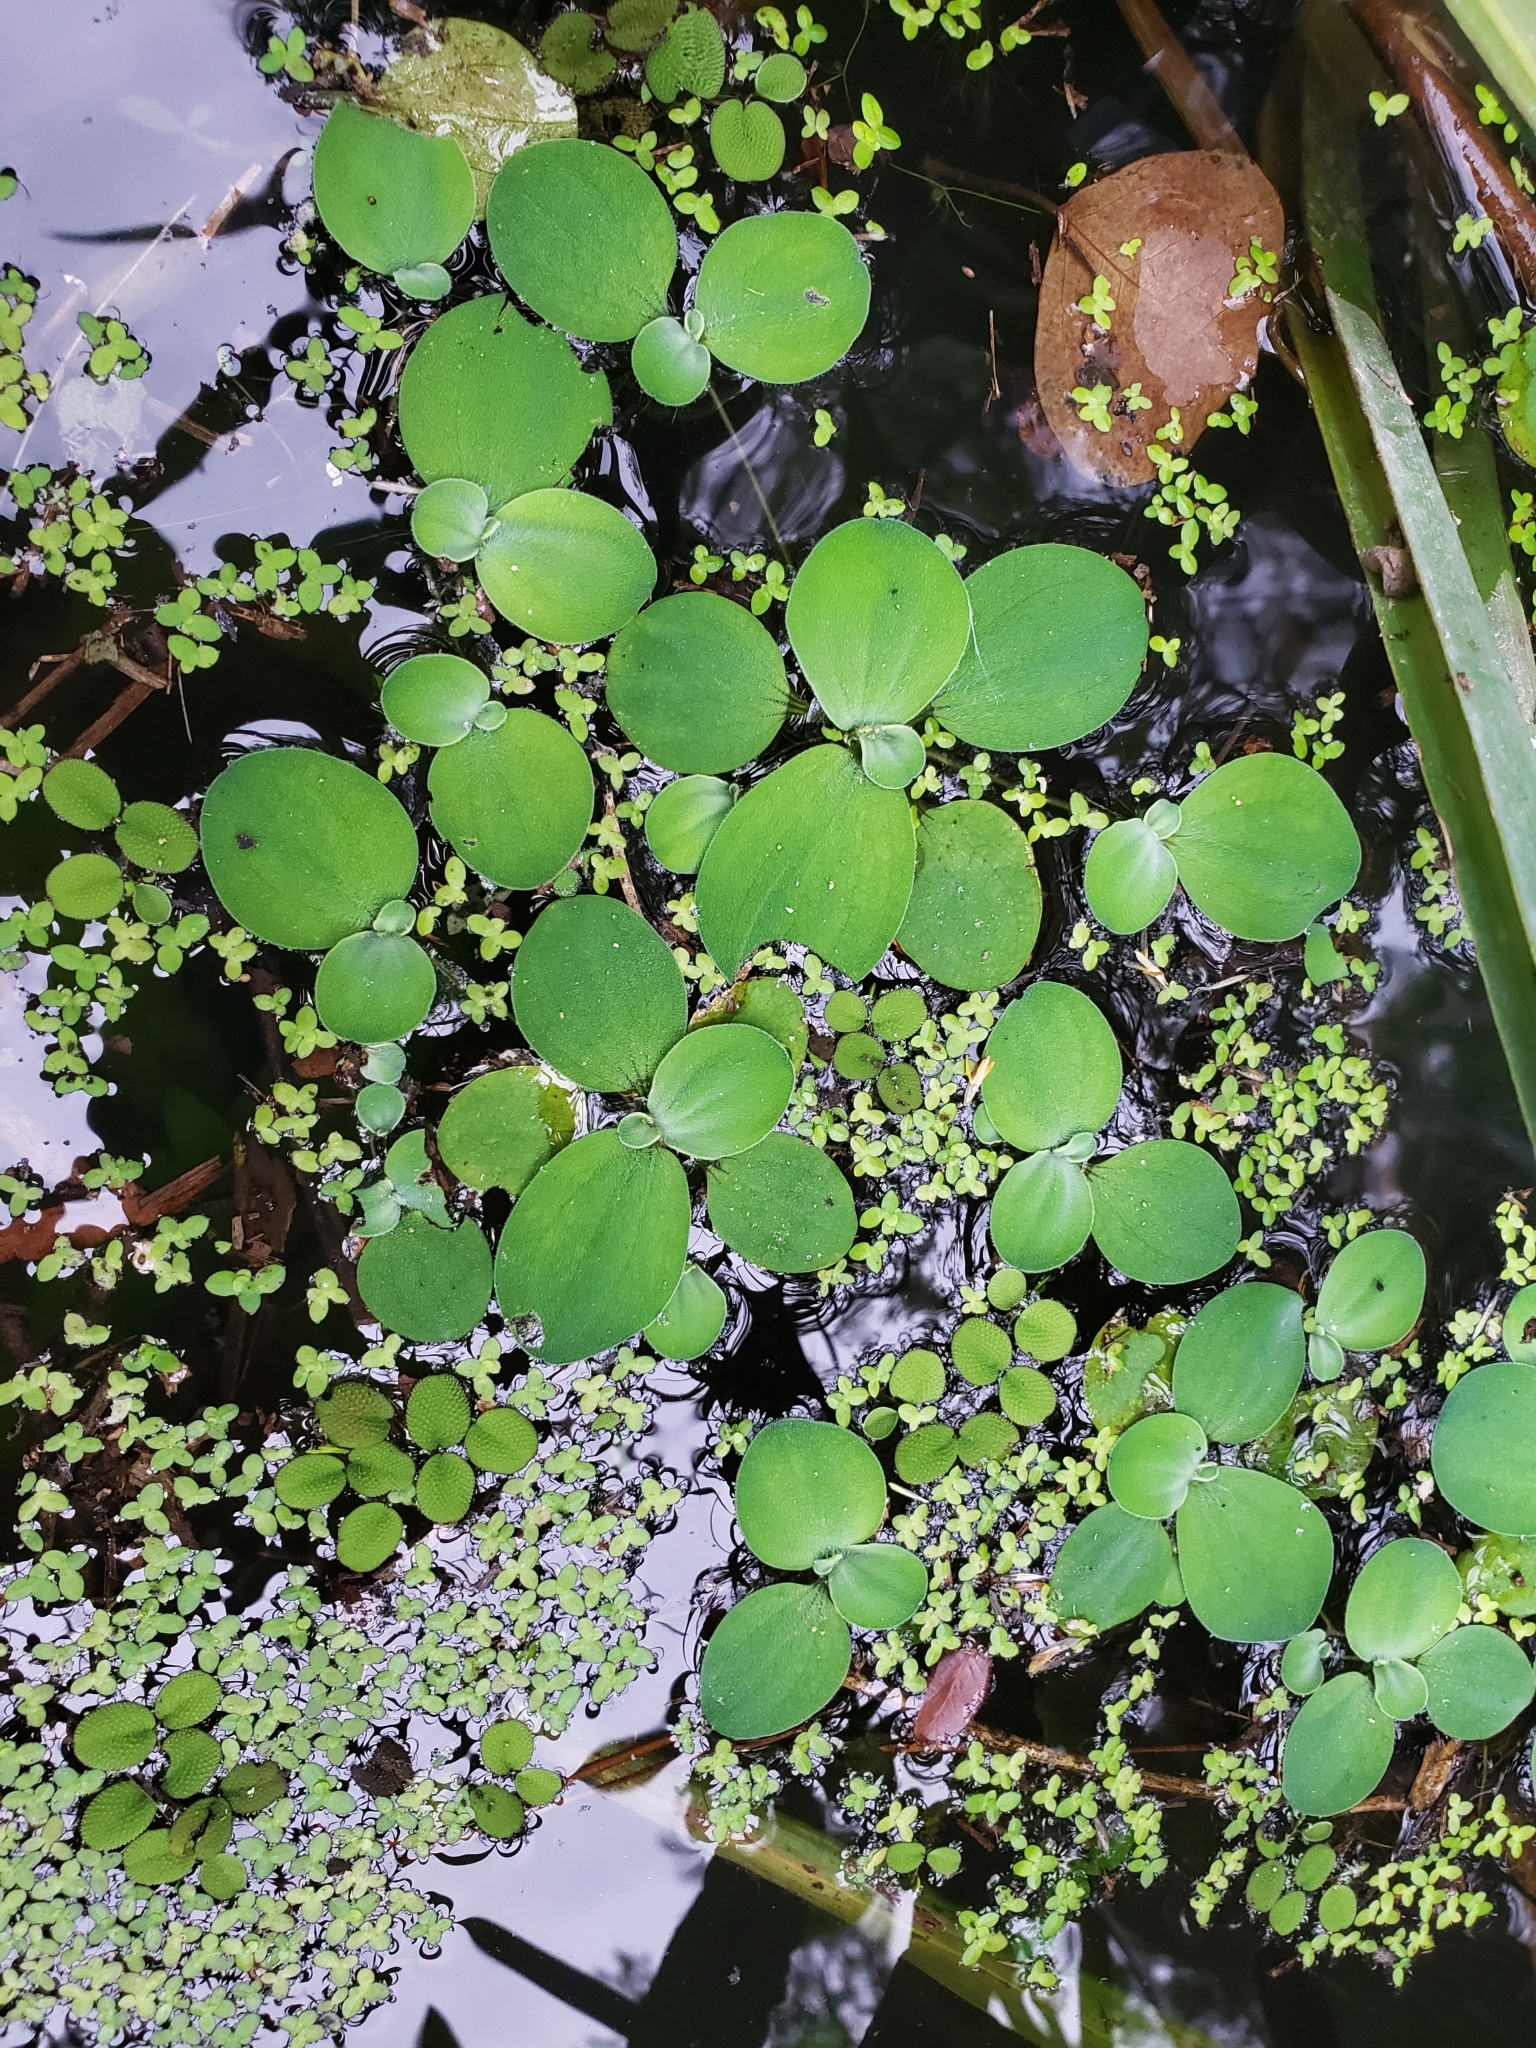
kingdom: Plantae
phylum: Tracheophyta
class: Liliopsida
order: Alismatales
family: Araceae
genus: Pistia
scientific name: Pistia stratiotes
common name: Water lettuce
